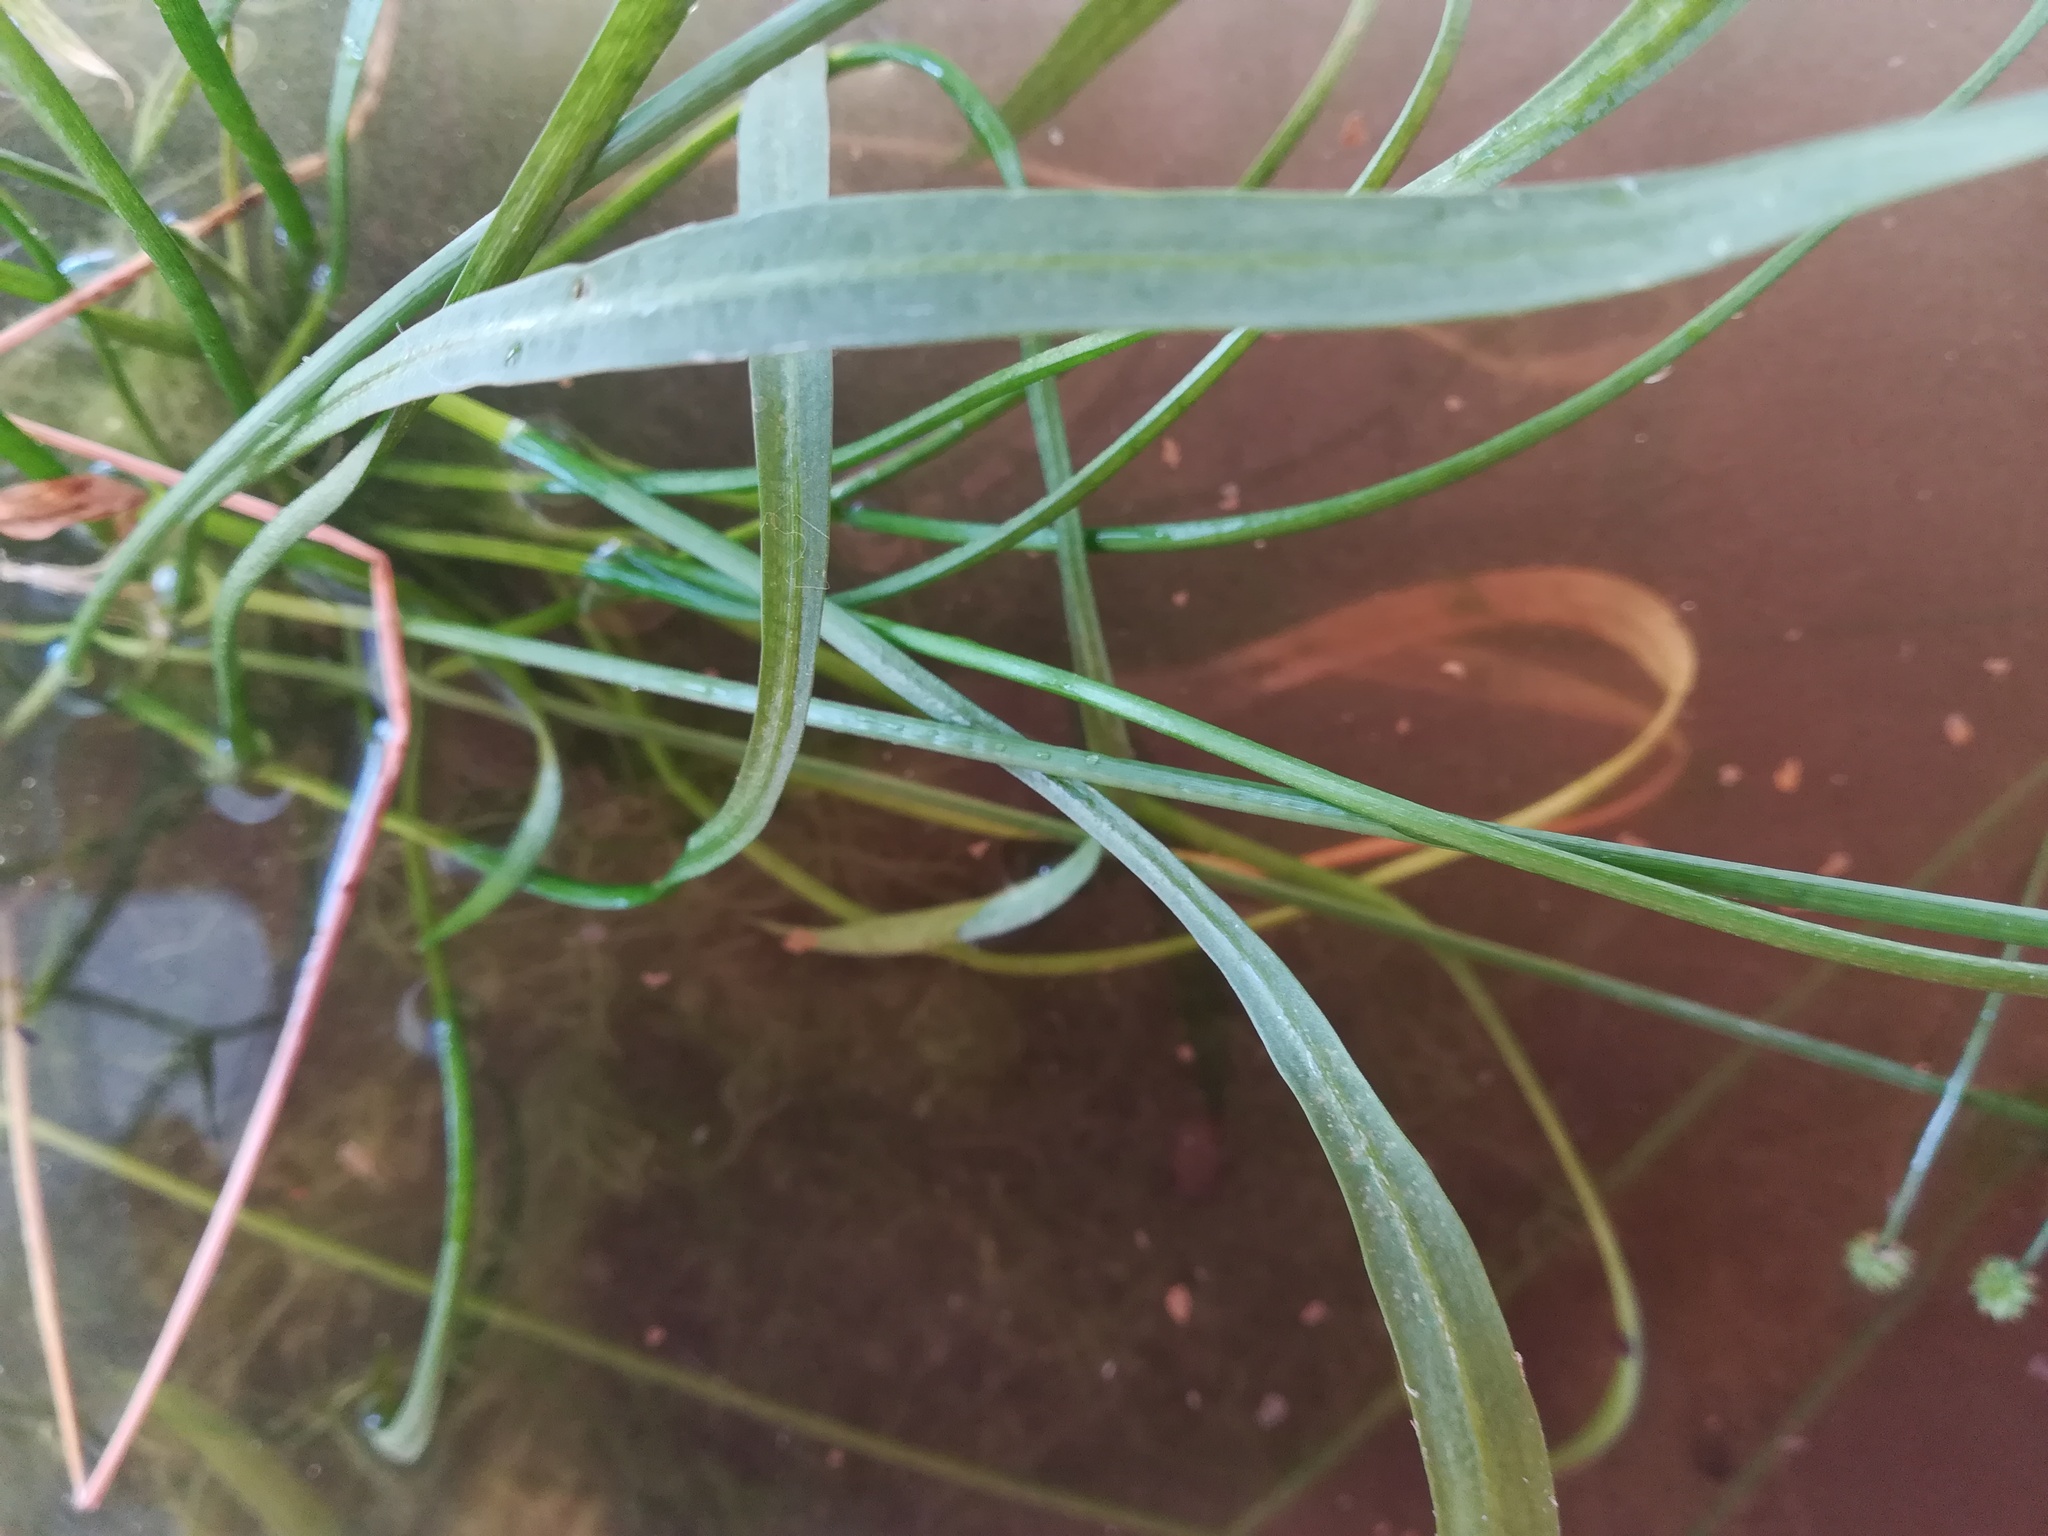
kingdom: Plantae
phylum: Tracheophyta
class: Liliopsida
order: Alismatales
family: Alismataceae
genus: Baldellia
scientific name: Baldellia ranunculoides
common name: Lesser water-plantain
